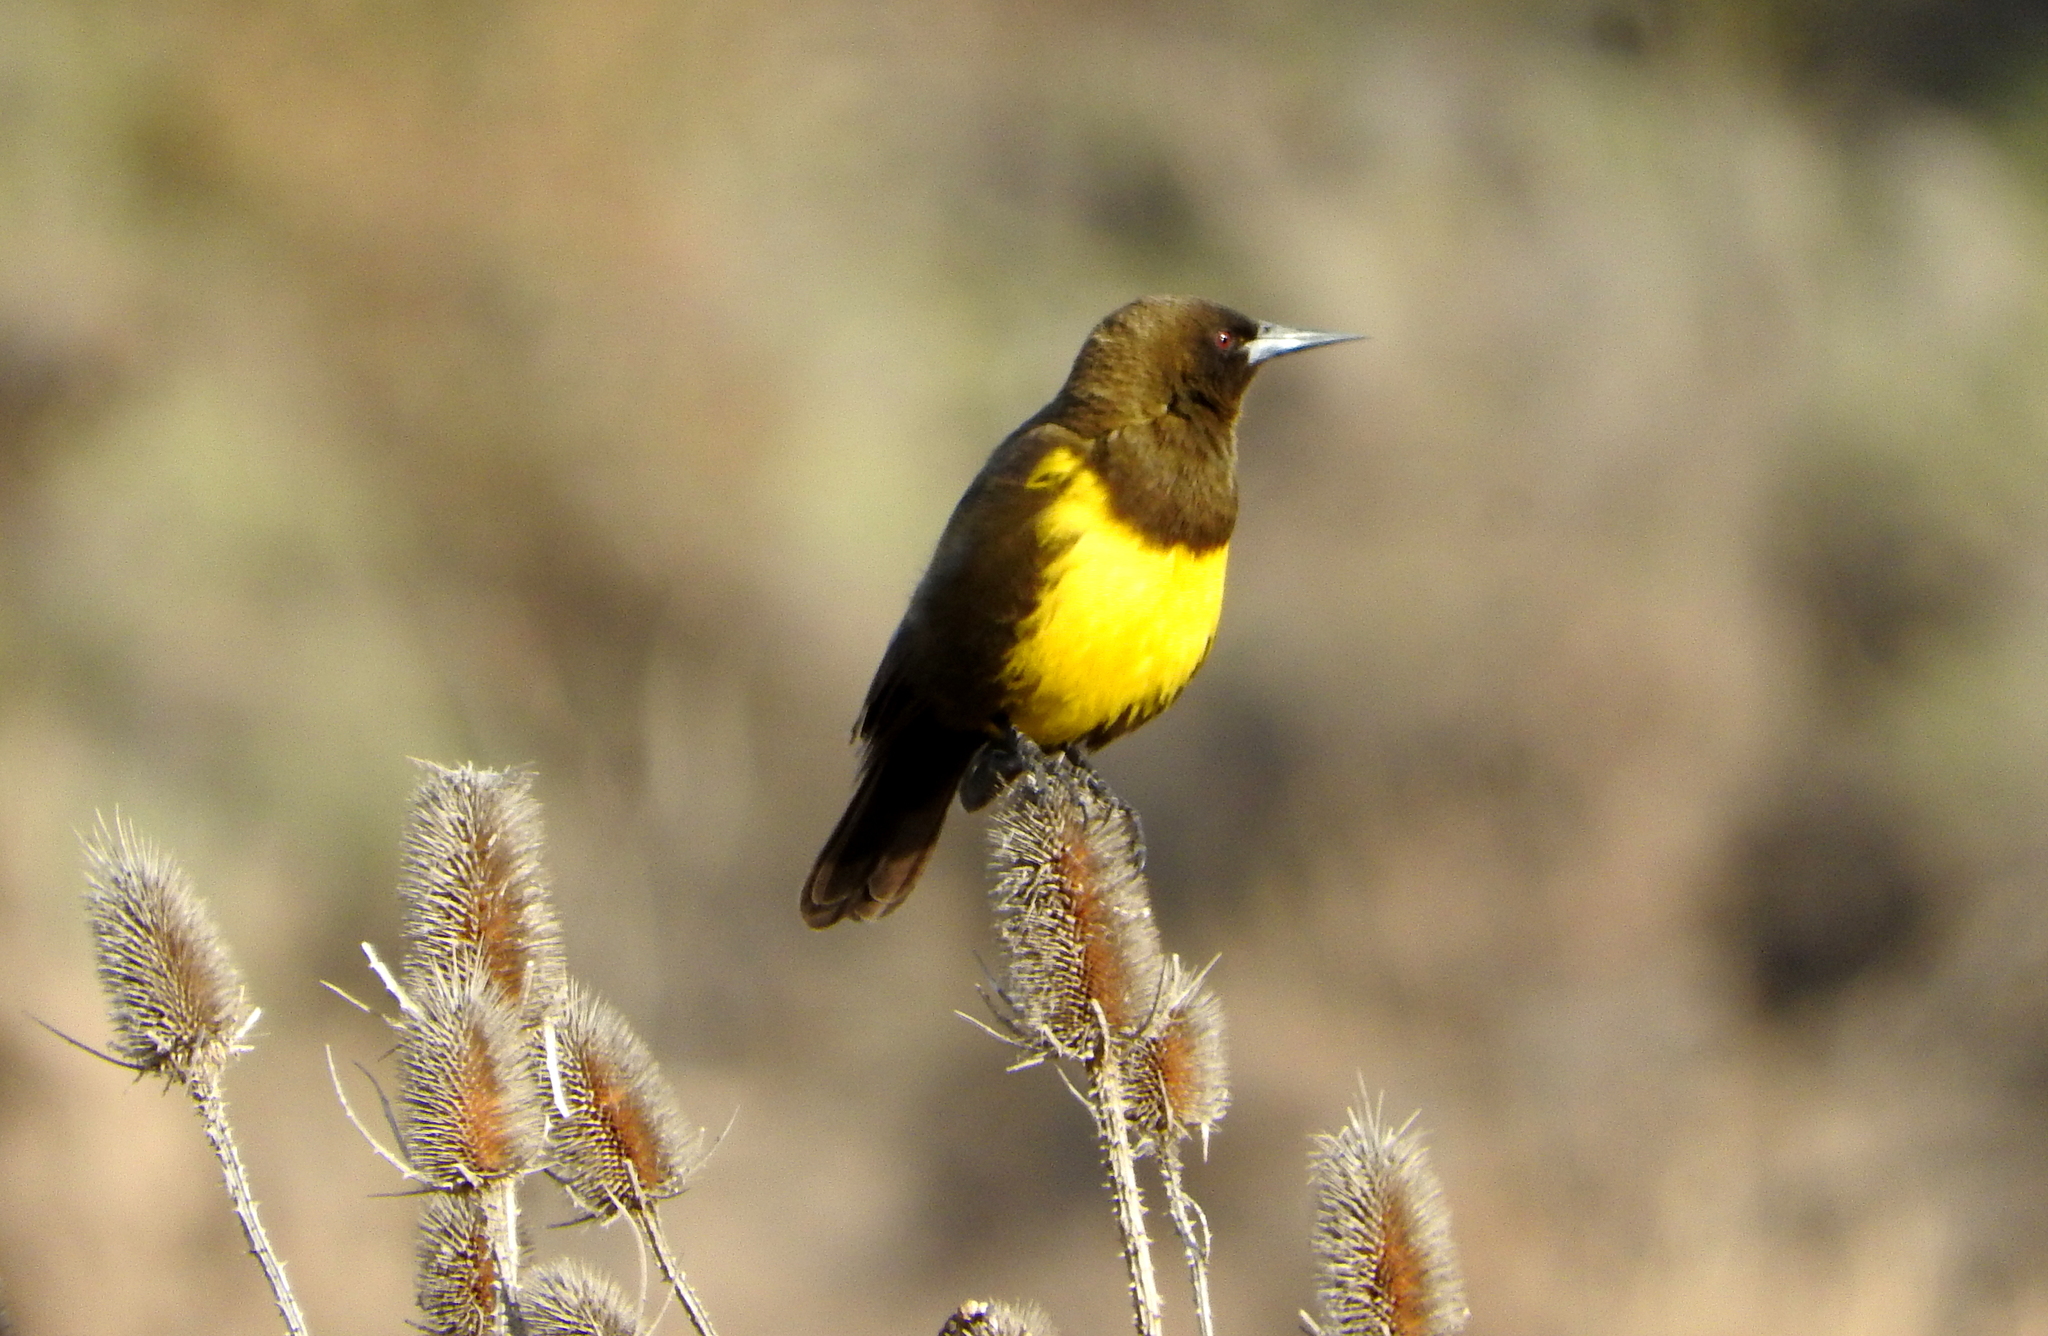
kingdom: Animalia
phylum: Chordata
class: Aves
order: Passeriformes
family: Icteridae
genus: Pseudoleistes
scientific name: Pseudoleistes virescens
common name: Brown-and-yellow marshbird
